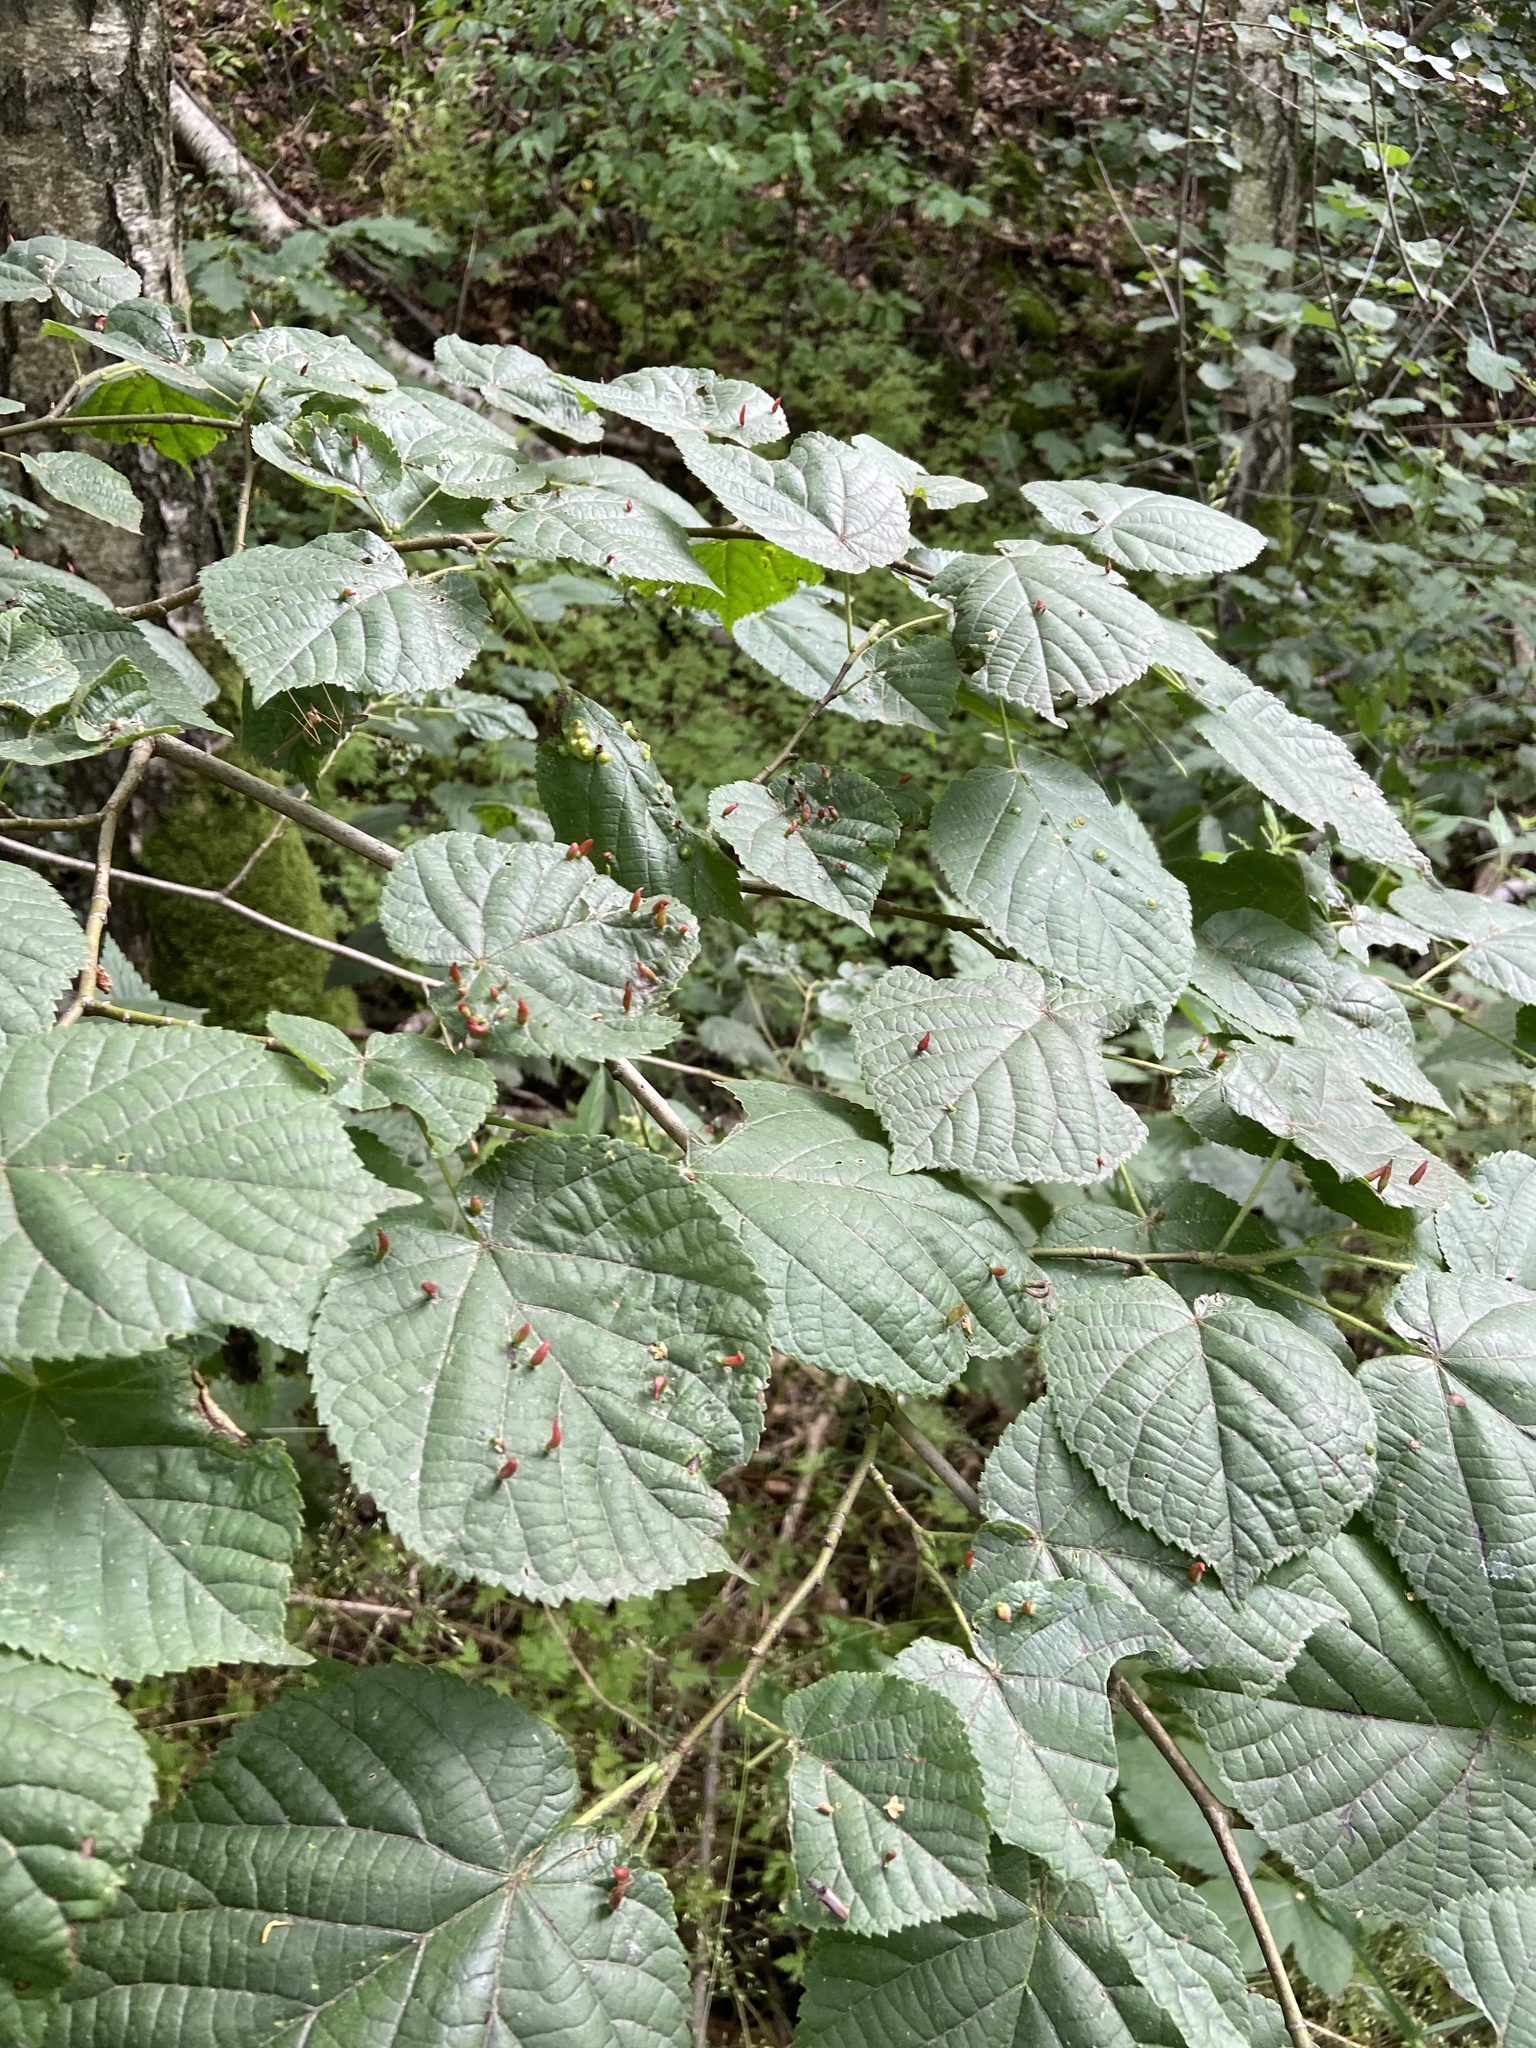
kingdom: Animalia
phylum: Arthropoda
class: Arachnida
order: Trombidiformes
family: Eriophyidae
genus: Eriophyes
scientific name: Eriophyes tiliae
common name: Red nail gall mite
